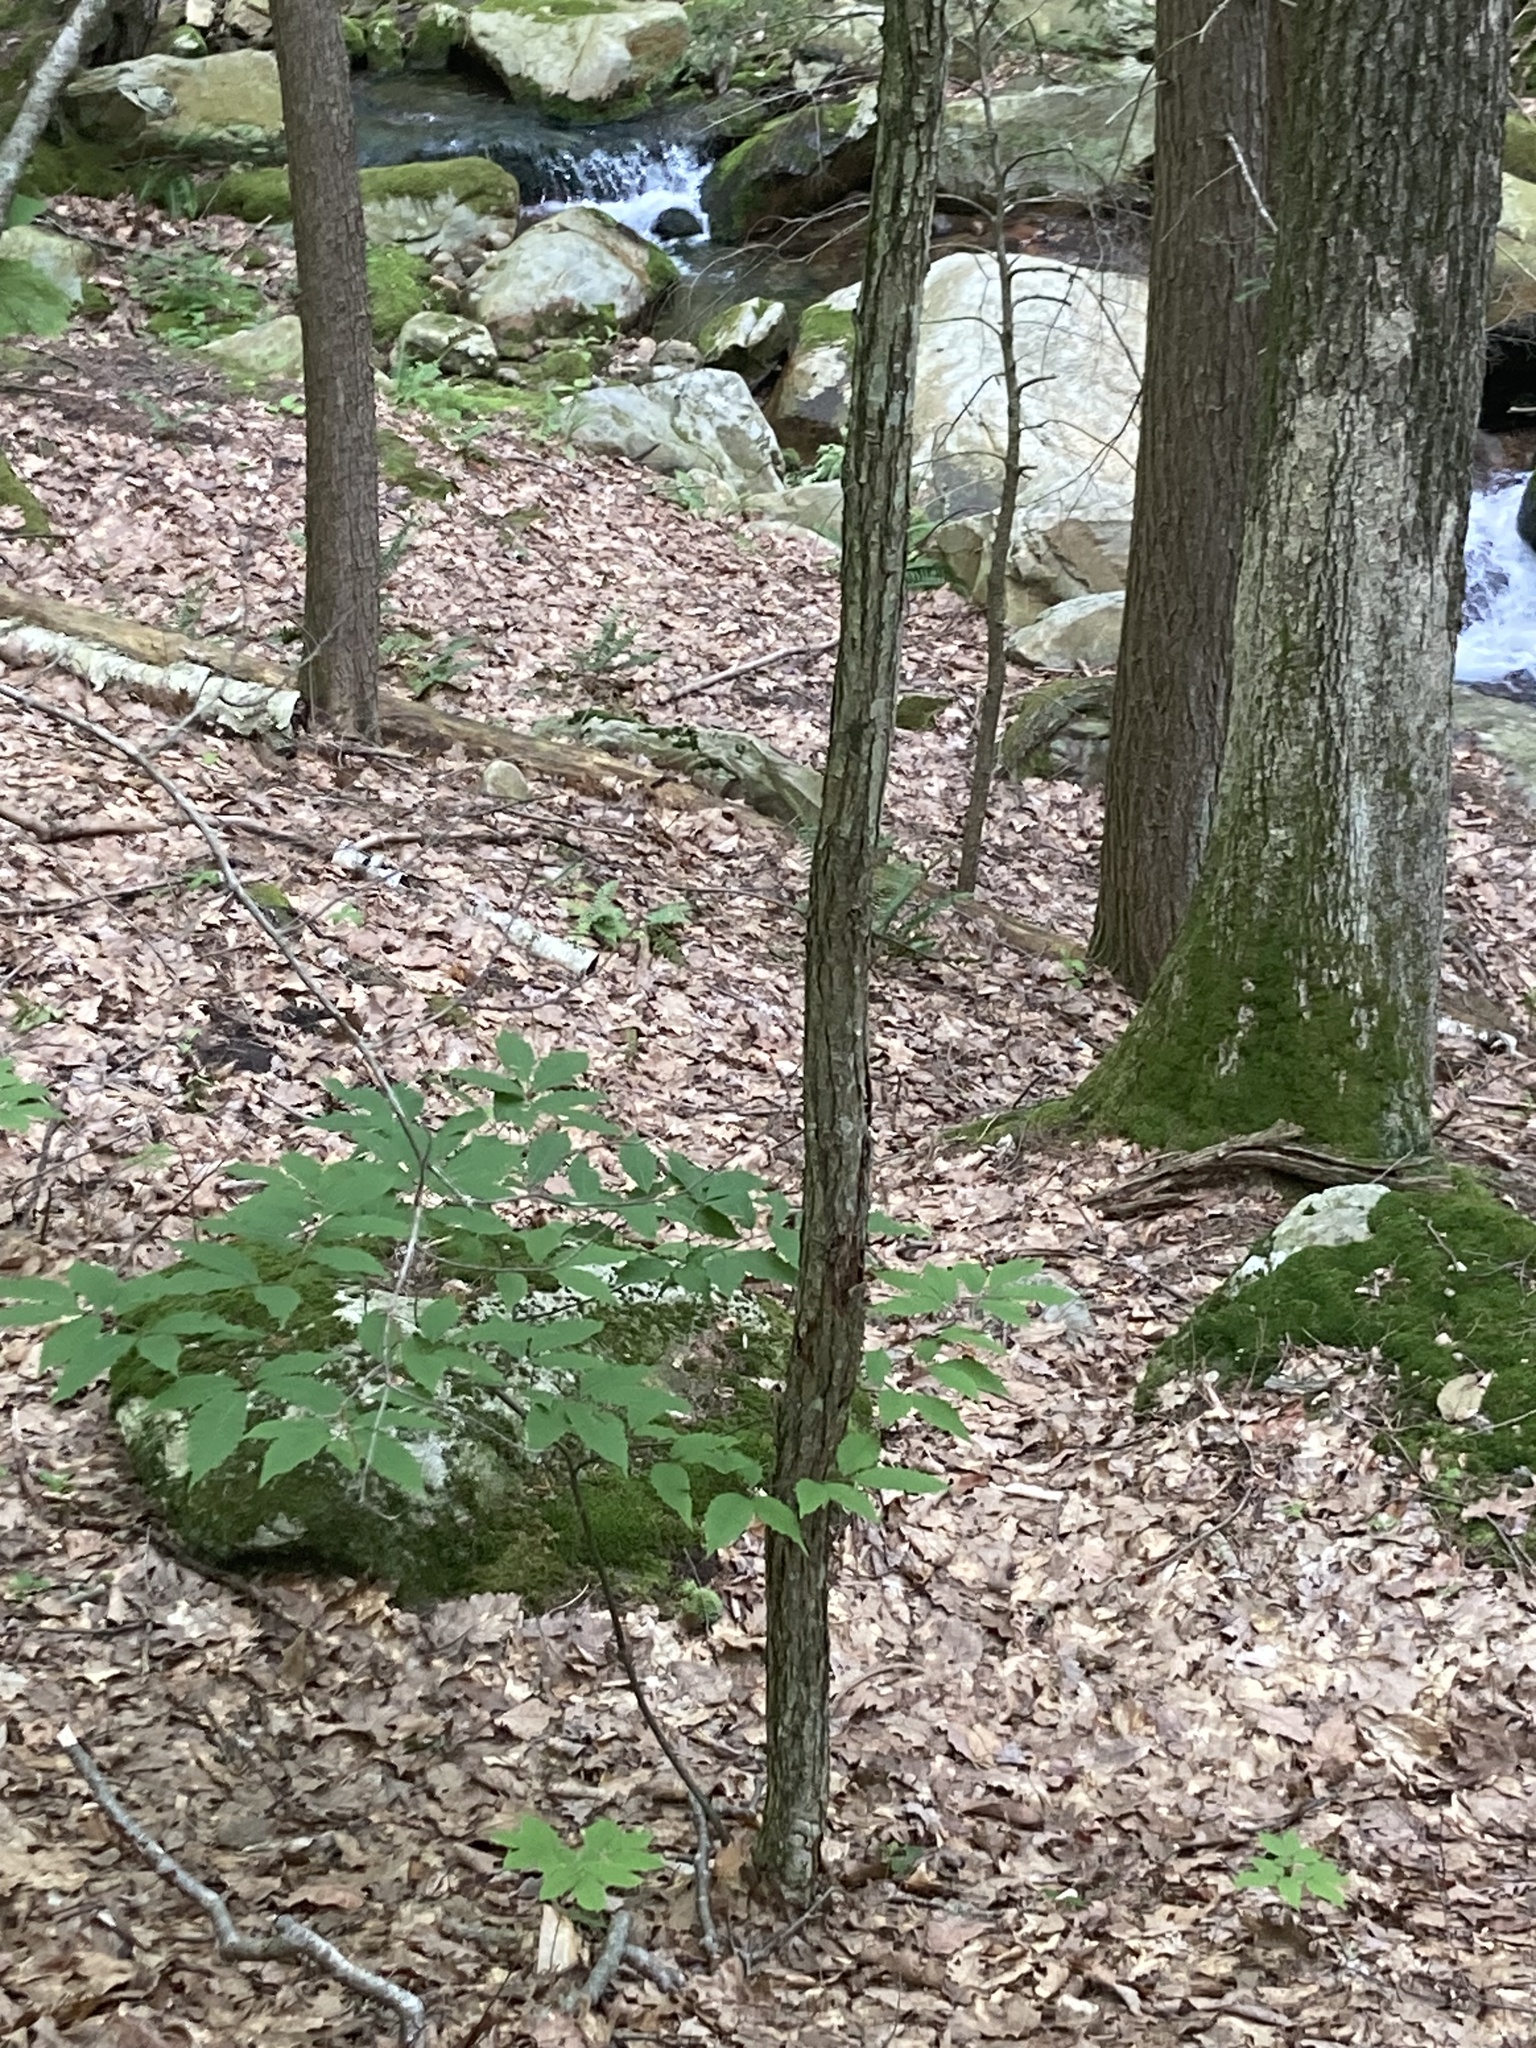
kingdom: Plantae
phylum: Tracheophyta
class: Magnoliopsida
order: Fagales
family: Fagaceae
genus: Castanea
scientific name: Castanea dentata
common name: American chestnut
